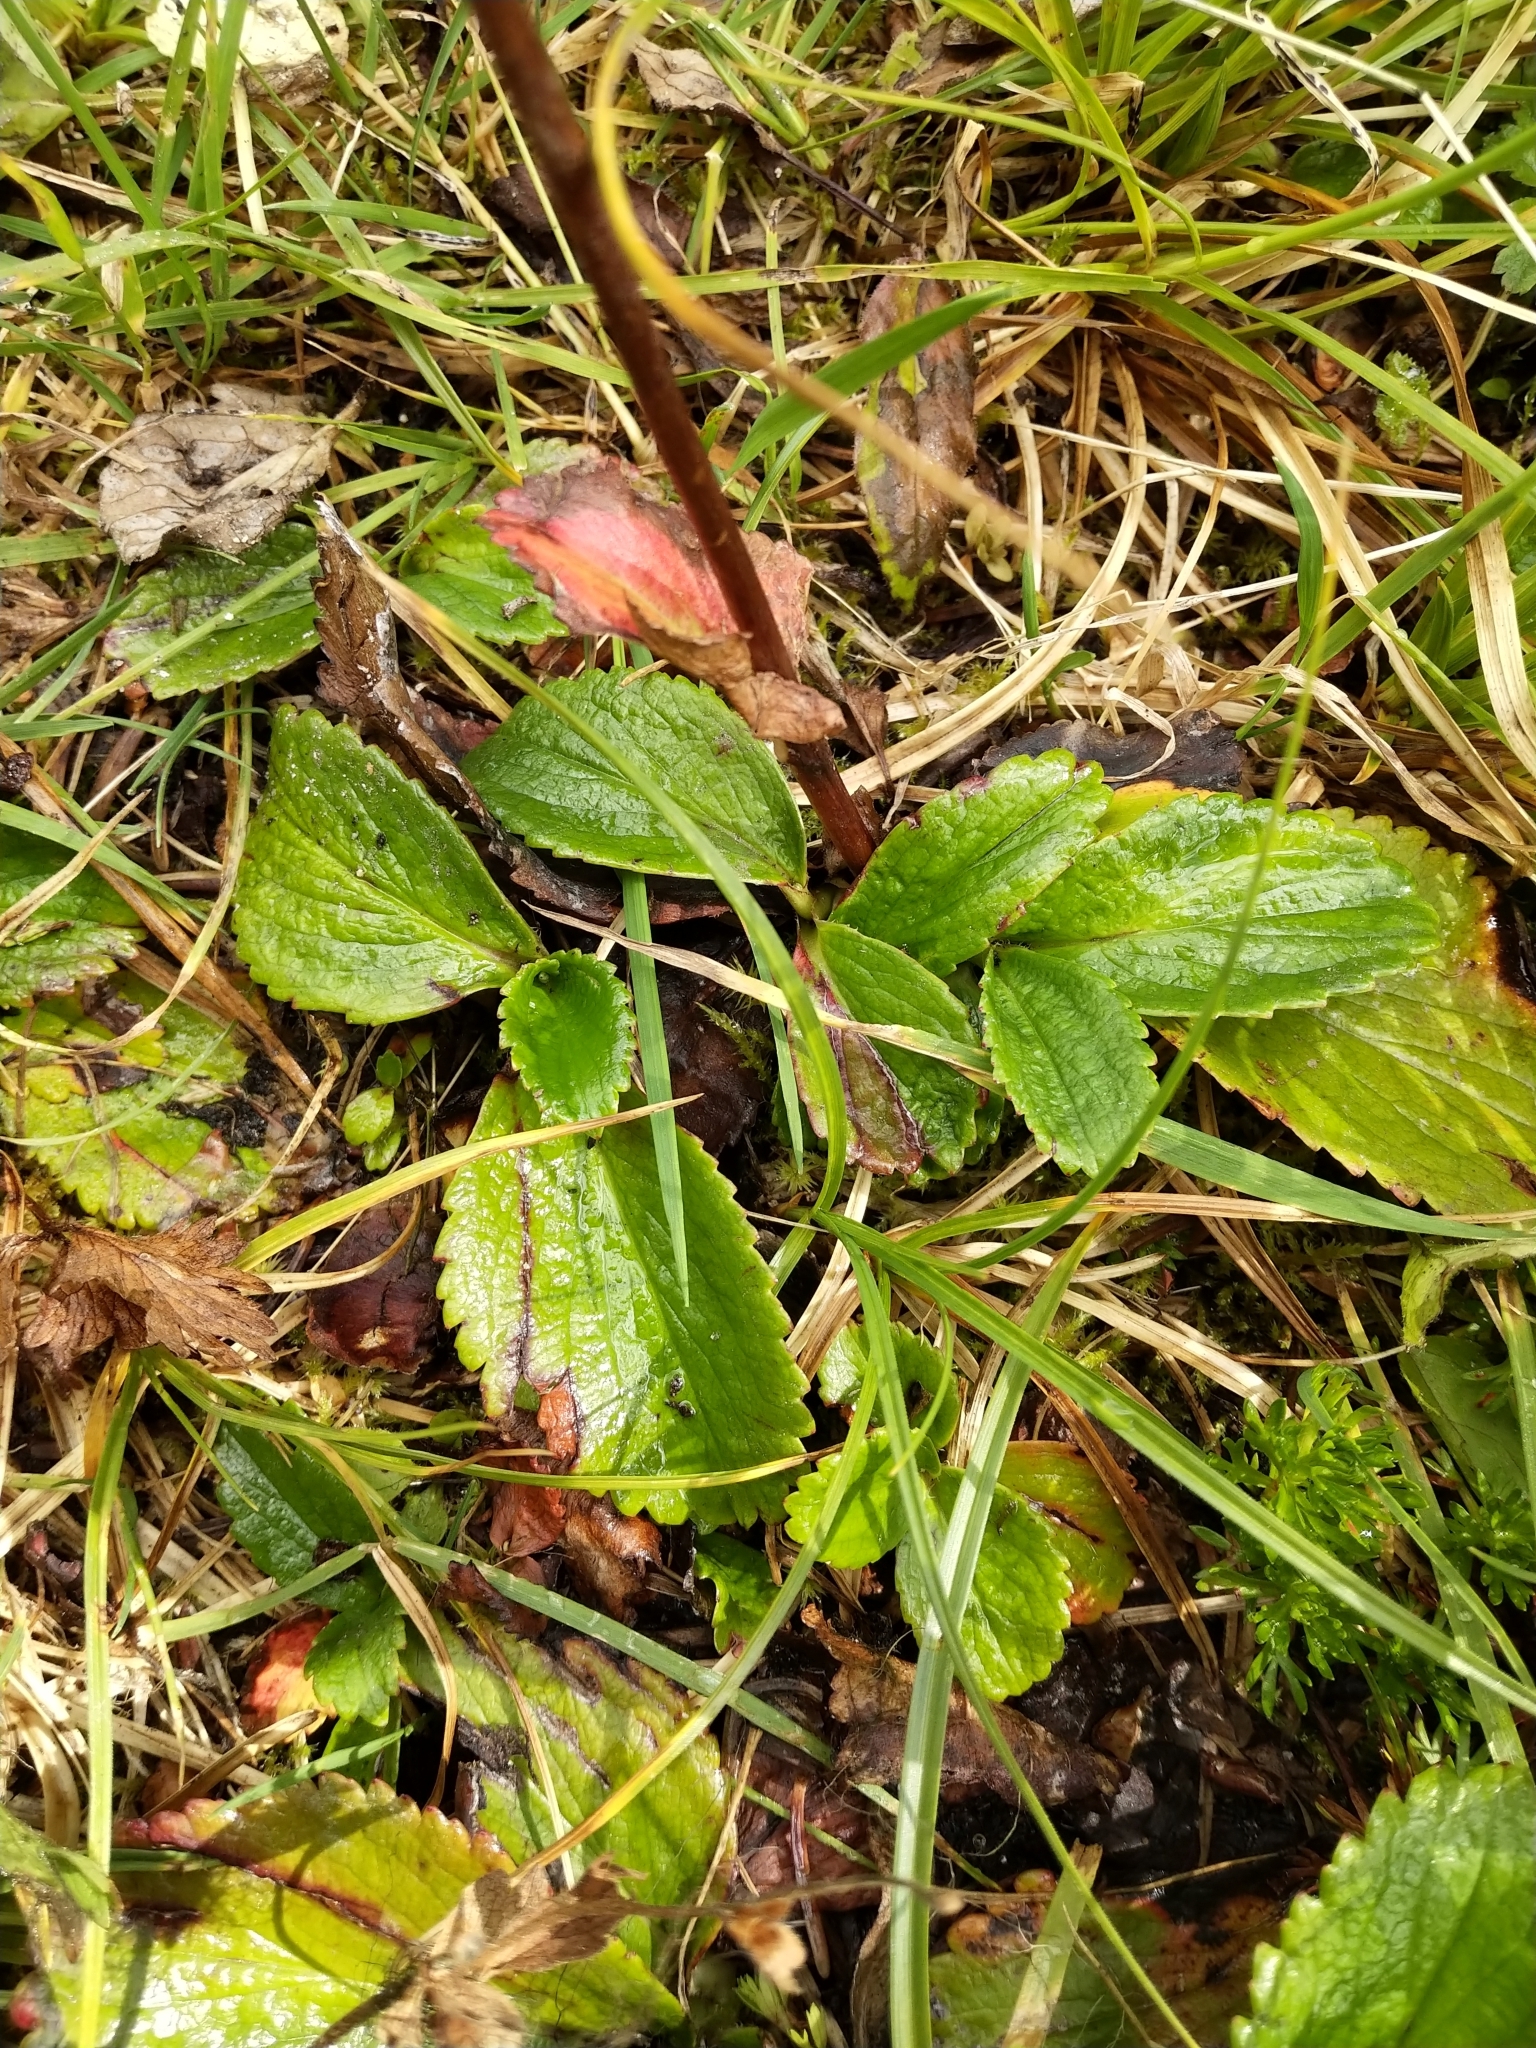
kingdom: Plantae
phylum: Tracheophyta
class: Magnoliopsida
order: Saxifragales
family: Saxifragaceae
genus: Leptarrhena
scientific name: Leptarrhena pyrolifolia
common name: Leatherleaf-saxifrage
